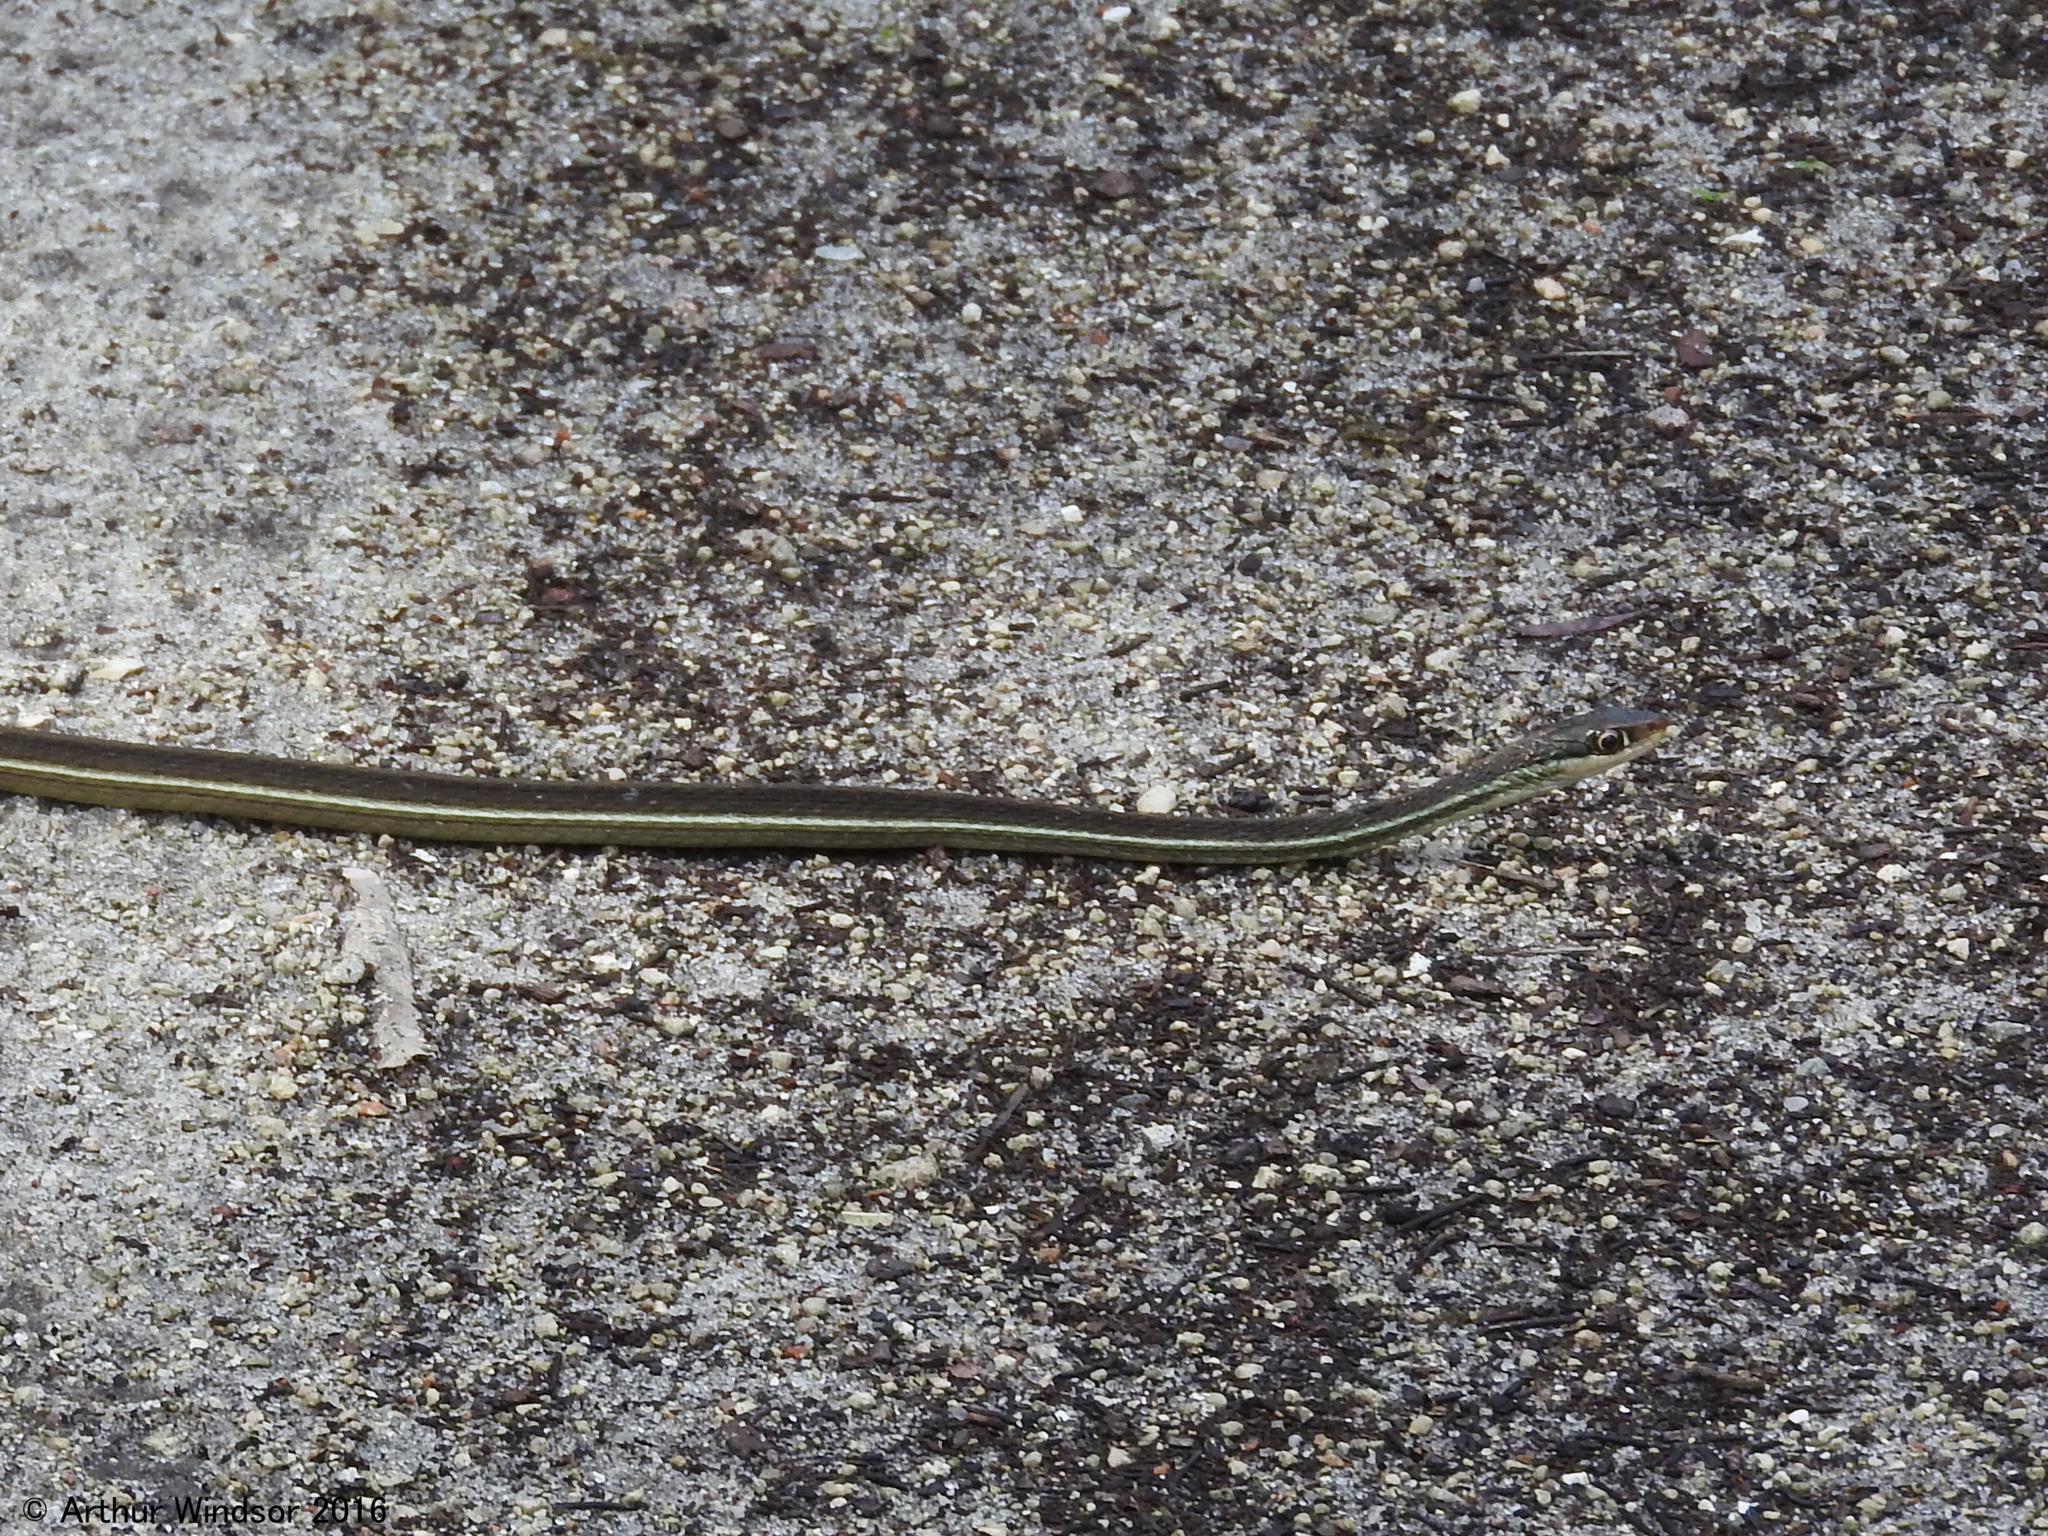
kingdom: Animalia
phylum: Chordata
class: Squamata
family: Colubridae
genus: Thamnophis
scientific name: Thamnophis saurita
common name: Eastern ribbonsnake
